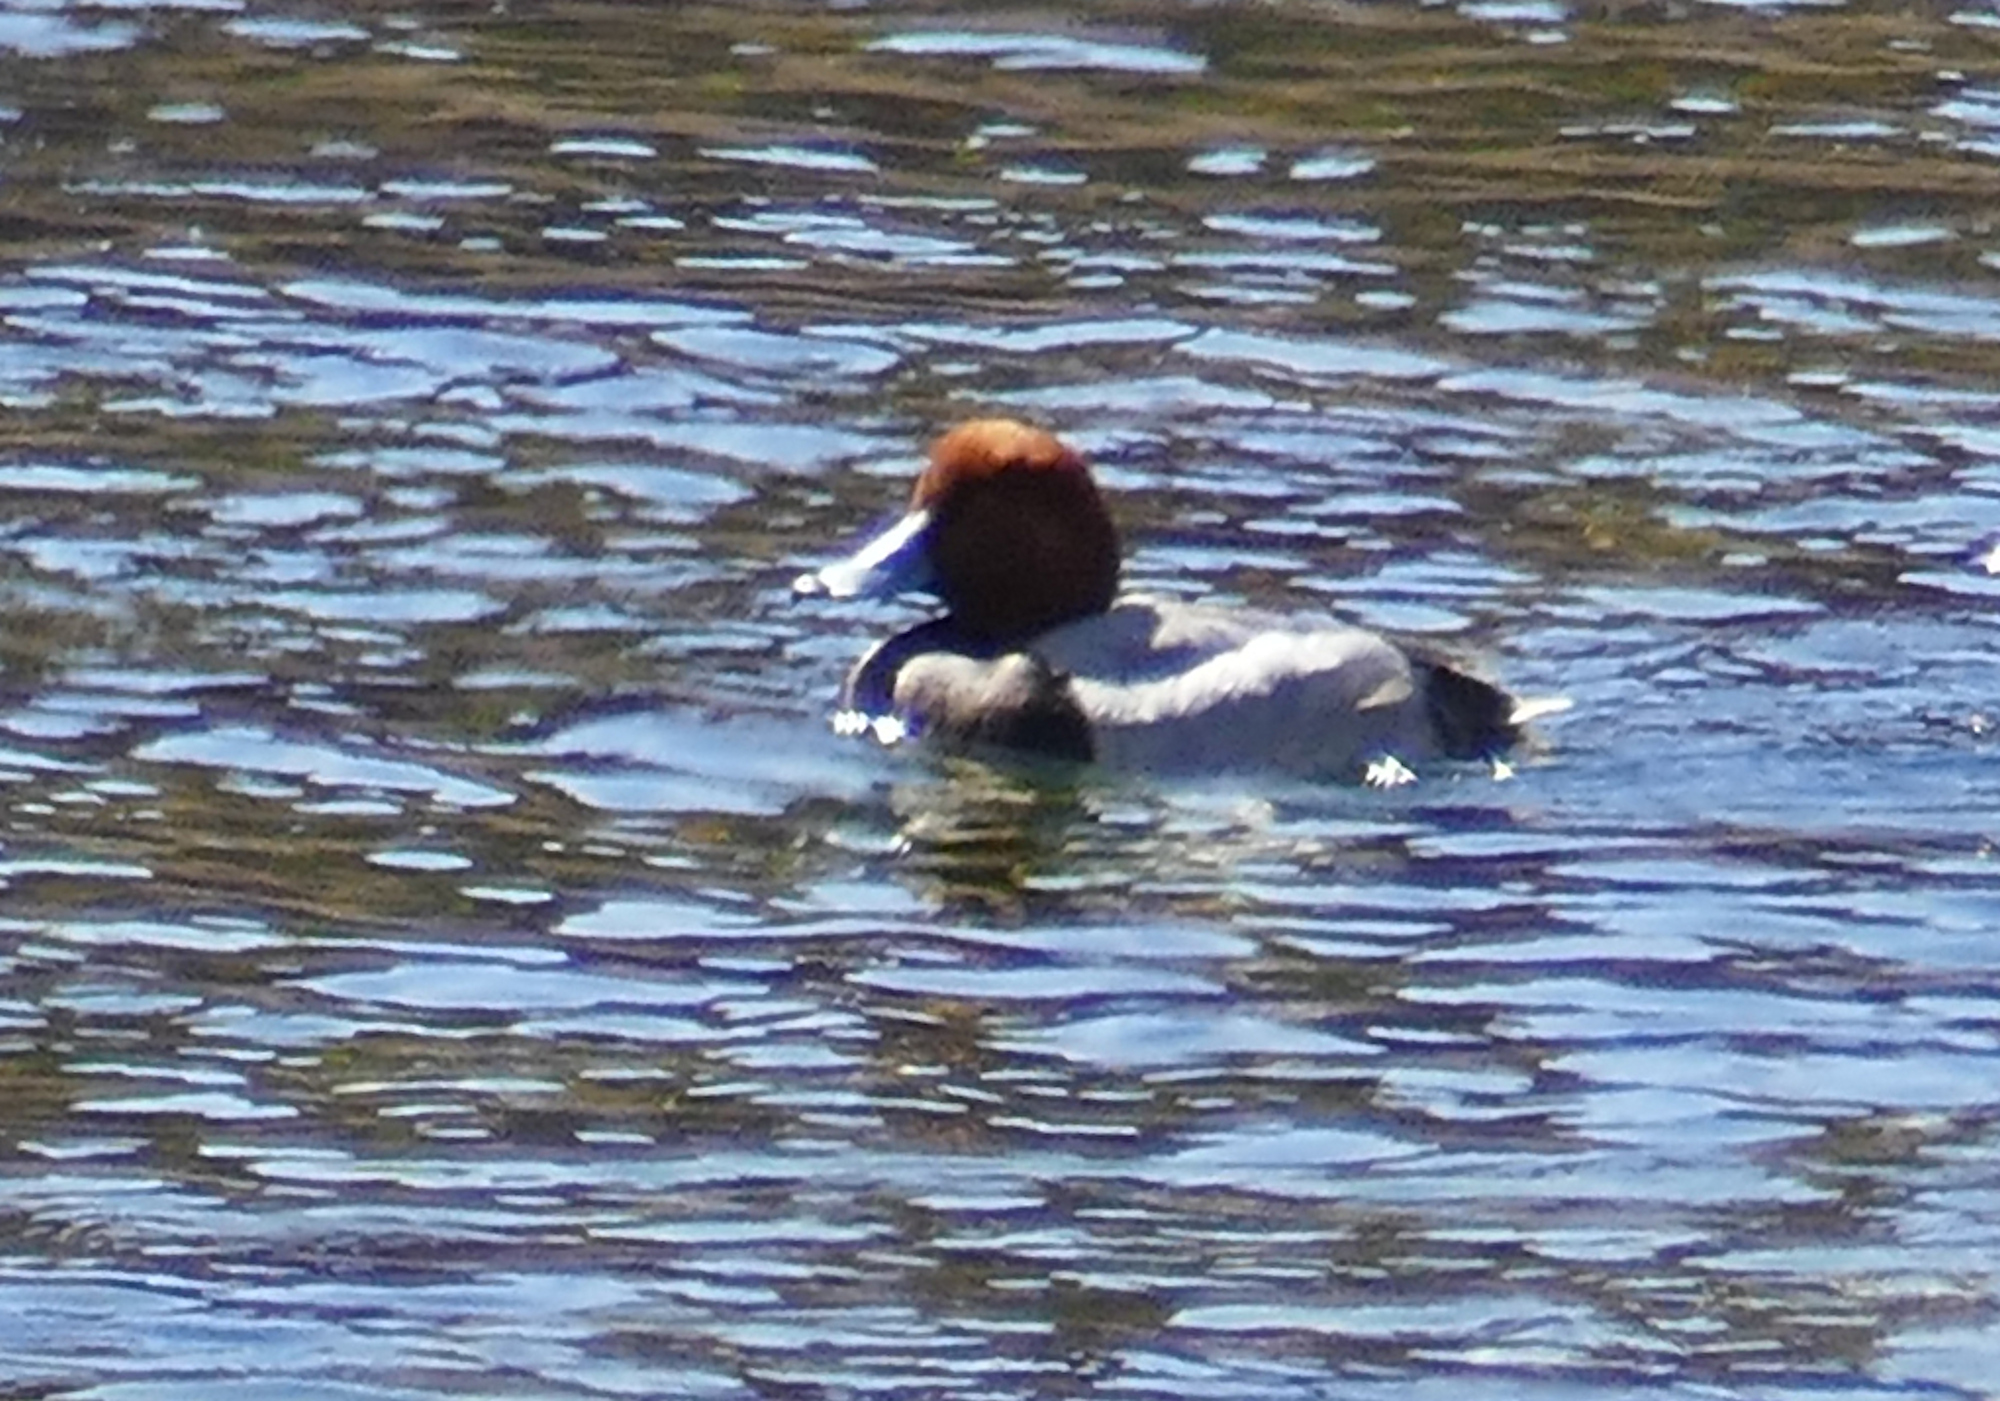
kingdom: Animalia
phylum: Chordata
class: Aves
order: Anseriformes
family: Anatidae
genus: Aythya
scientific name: Aythya americana
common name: Redhead
